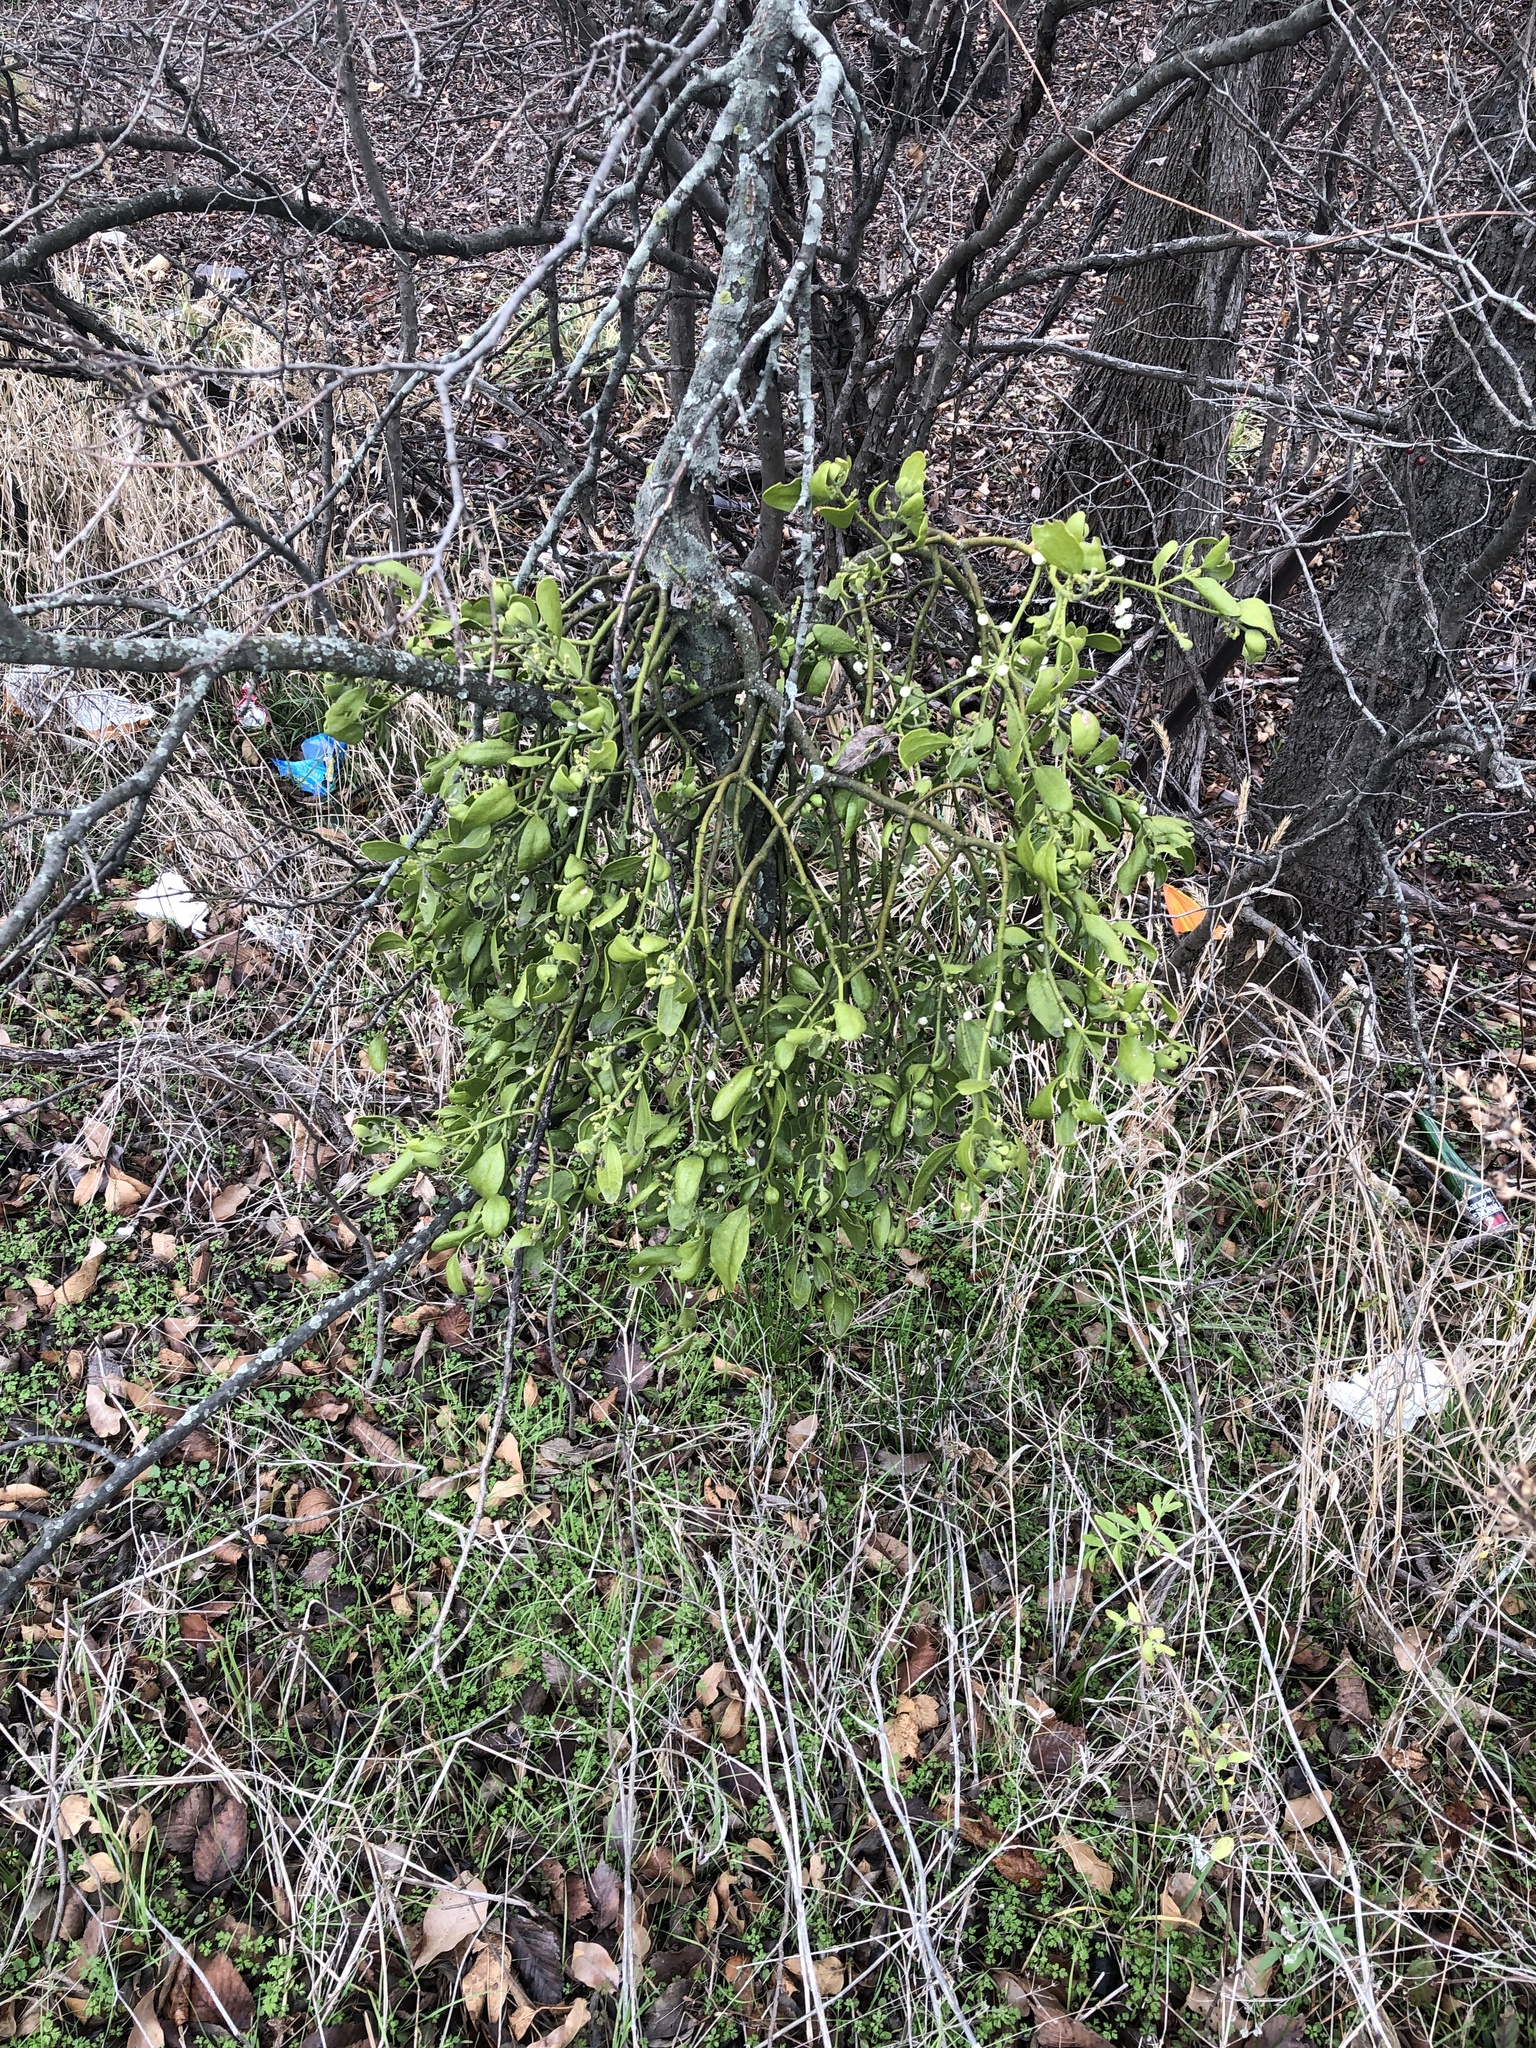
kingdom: Plantae
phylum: Tracheophyta
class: Magnoliopsida
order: Santalales
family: Viscaceae
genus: Phoradendron
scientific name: Phoradendron leucarpum
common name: Pacific mistletoe
